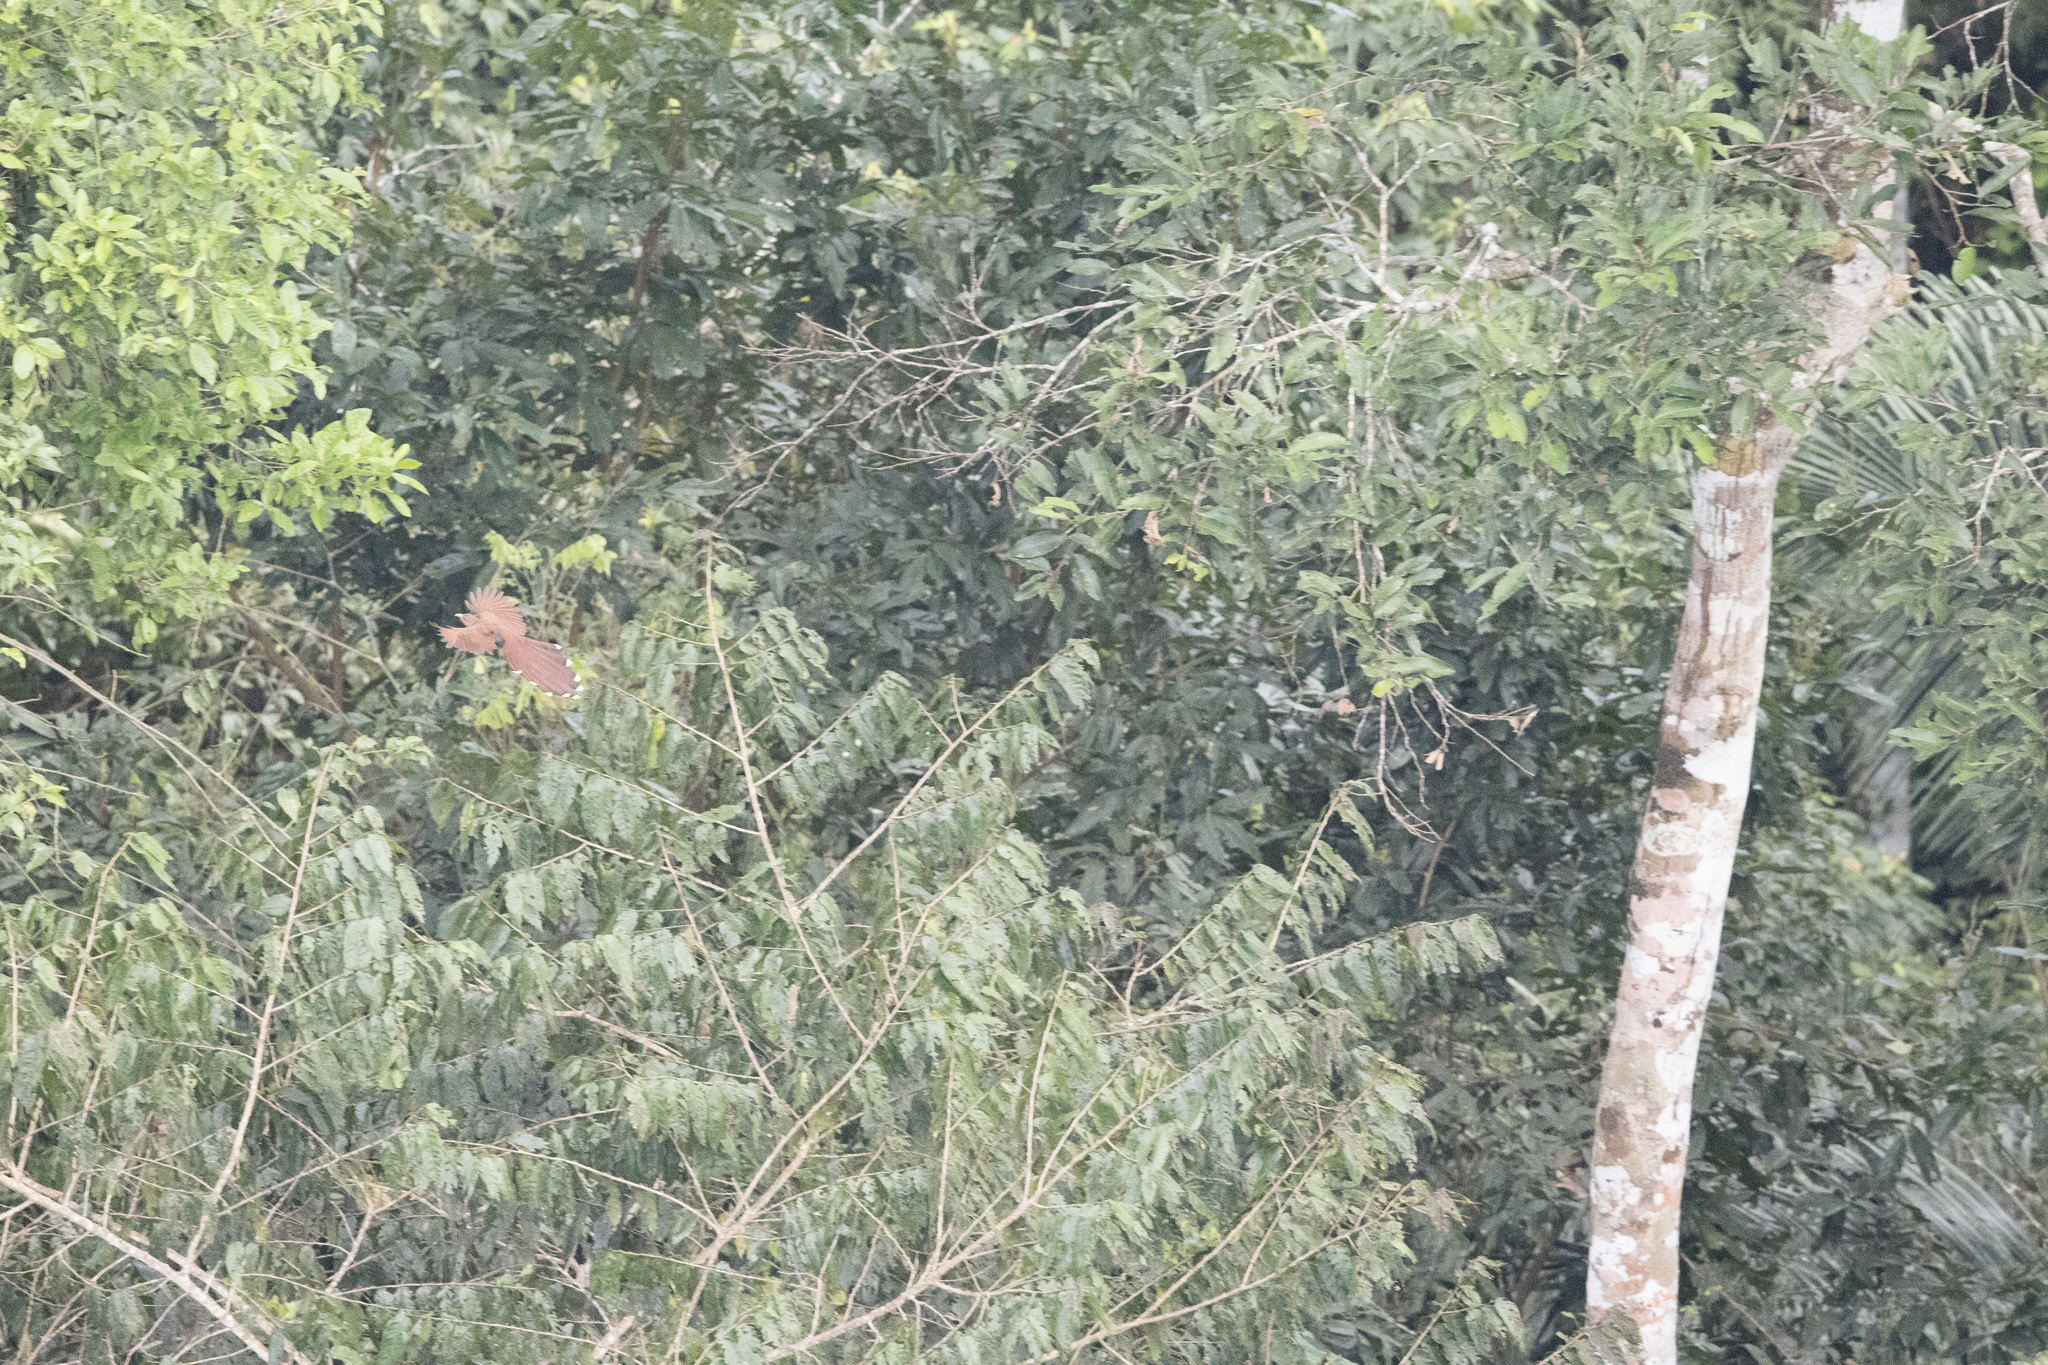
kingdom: Animalia
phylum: Chordata
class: Aves
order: Cuculiformes
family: Cuculidae
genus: Piaya
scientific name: Piaya cayana
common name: Squirrel cuckoo
